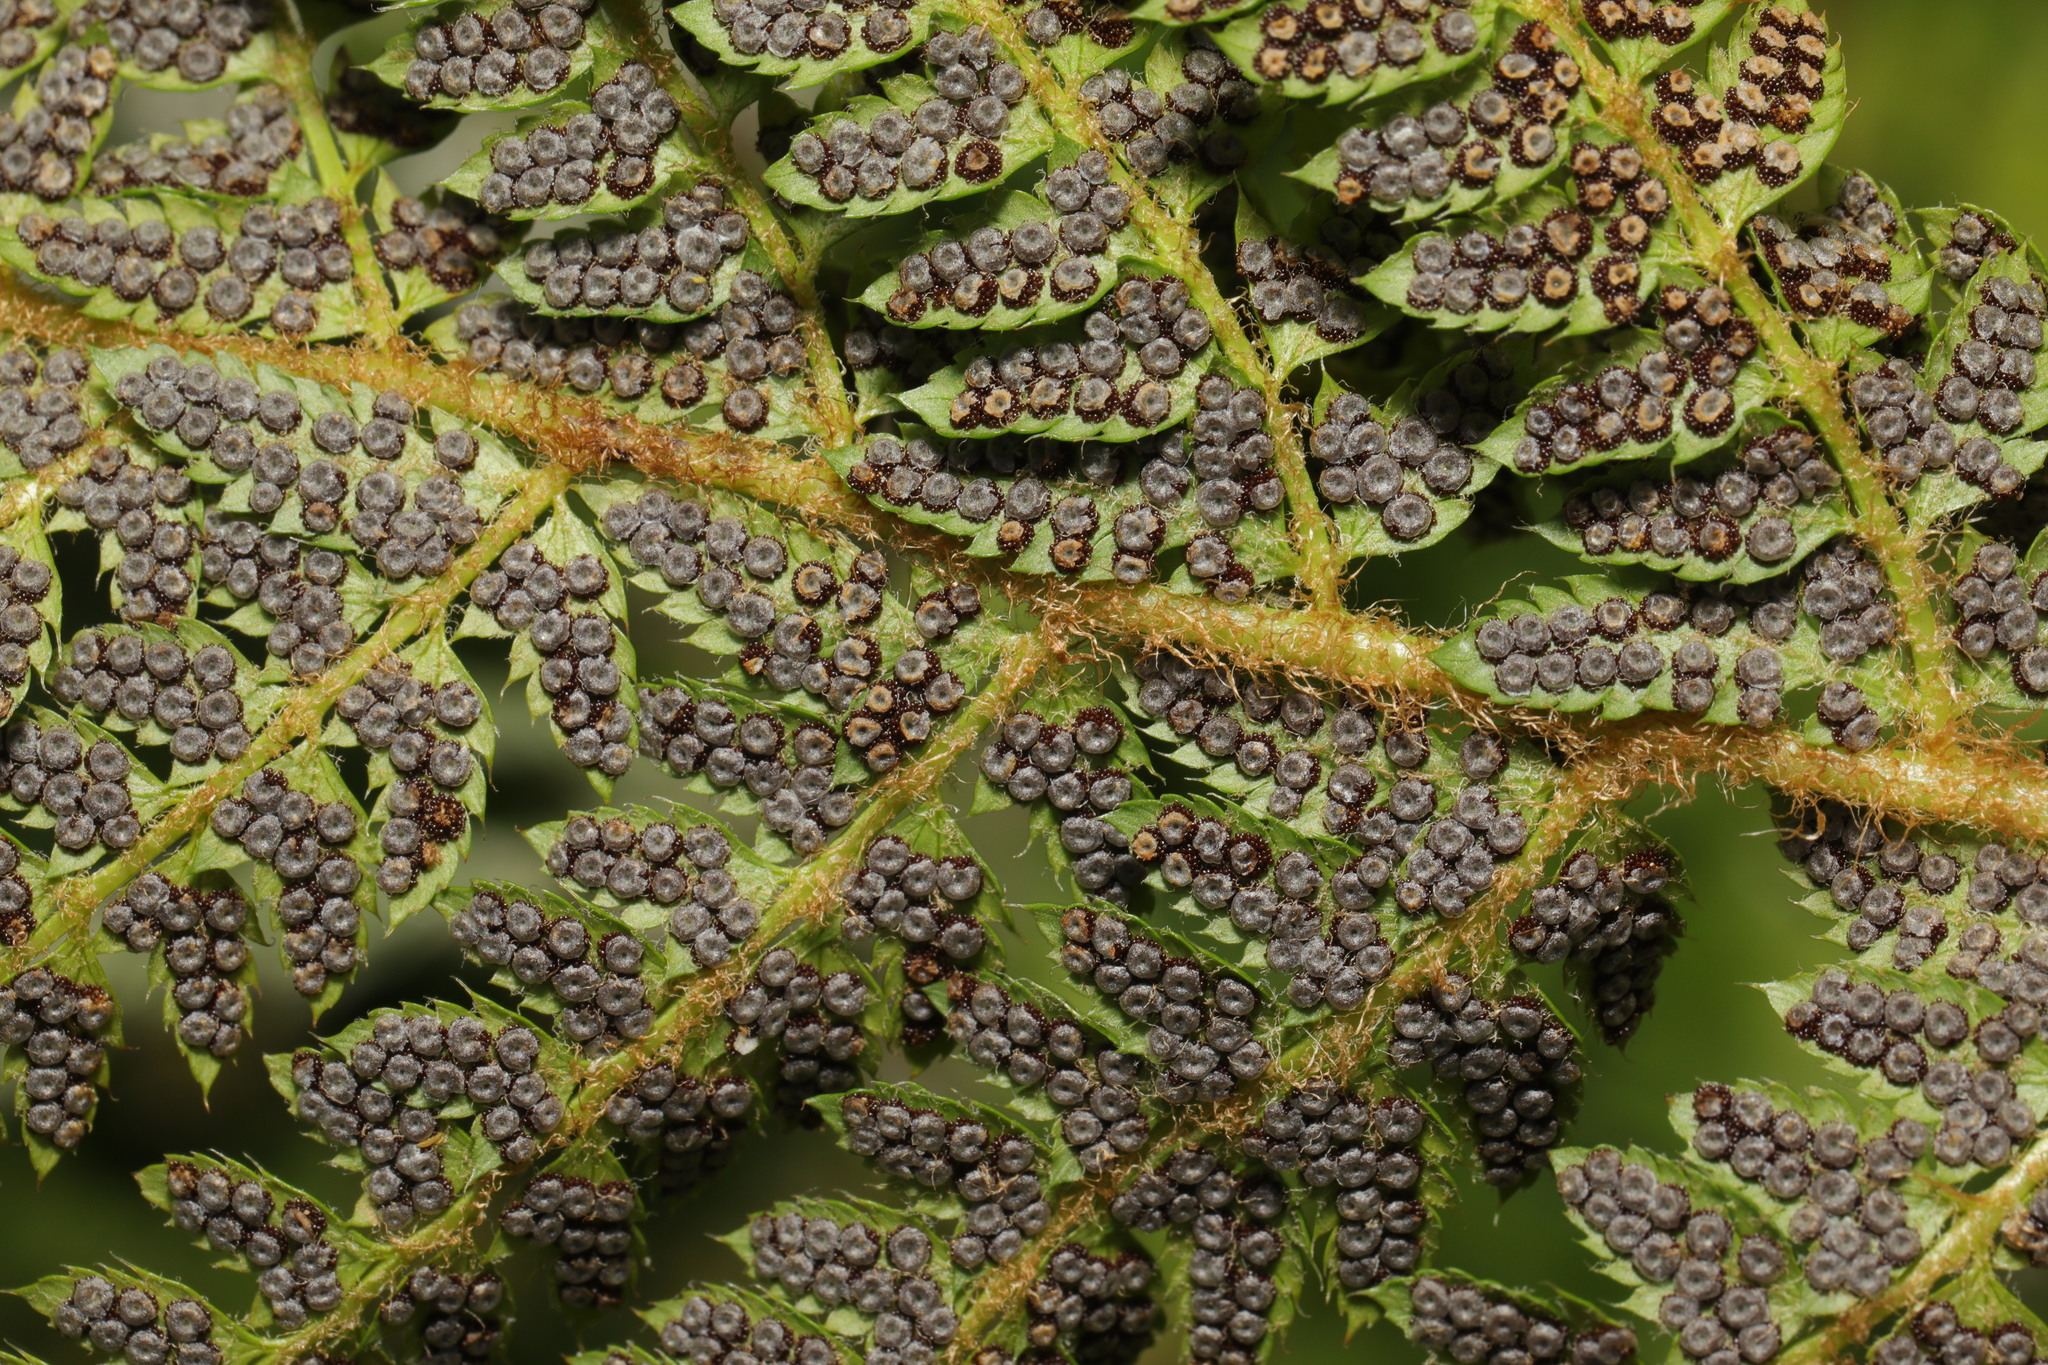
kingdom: Plantae
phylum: Tracheophyta
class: Polypodiopsida
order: Polypodiales
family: Dryopteridaceae
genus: Polystichum
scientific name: Polystichum setiferum
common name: Soft shield-fern
